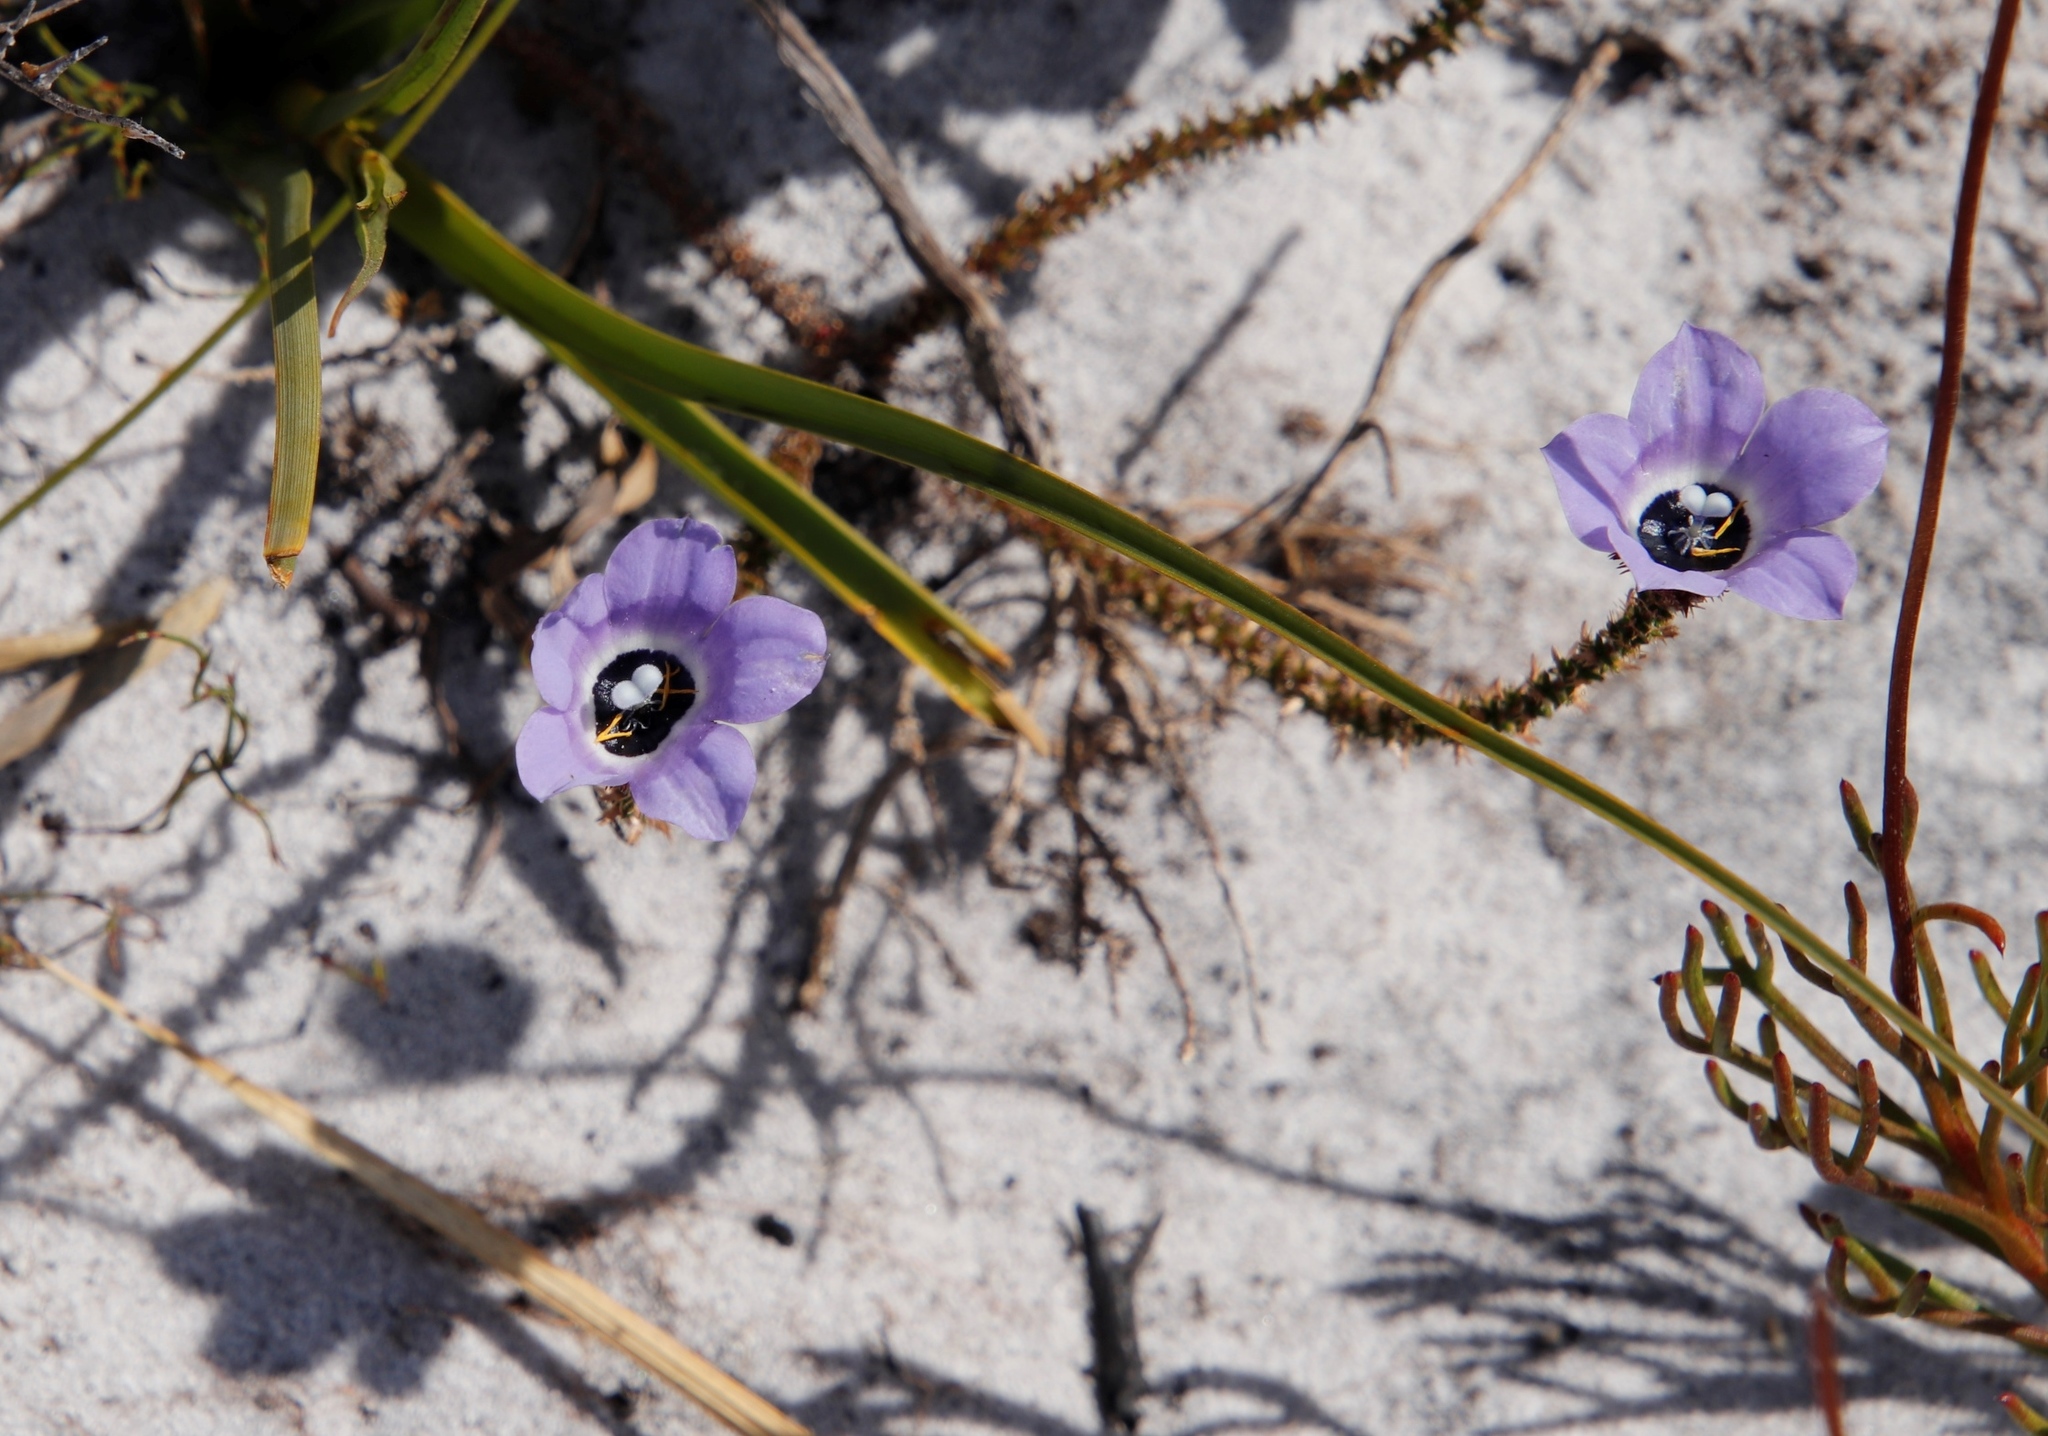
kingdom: Plantae
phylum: Tracheophyta
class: Magnoliopsida
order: Asterales
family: Campanulaceae
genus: Roella
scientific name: Roella triflora
